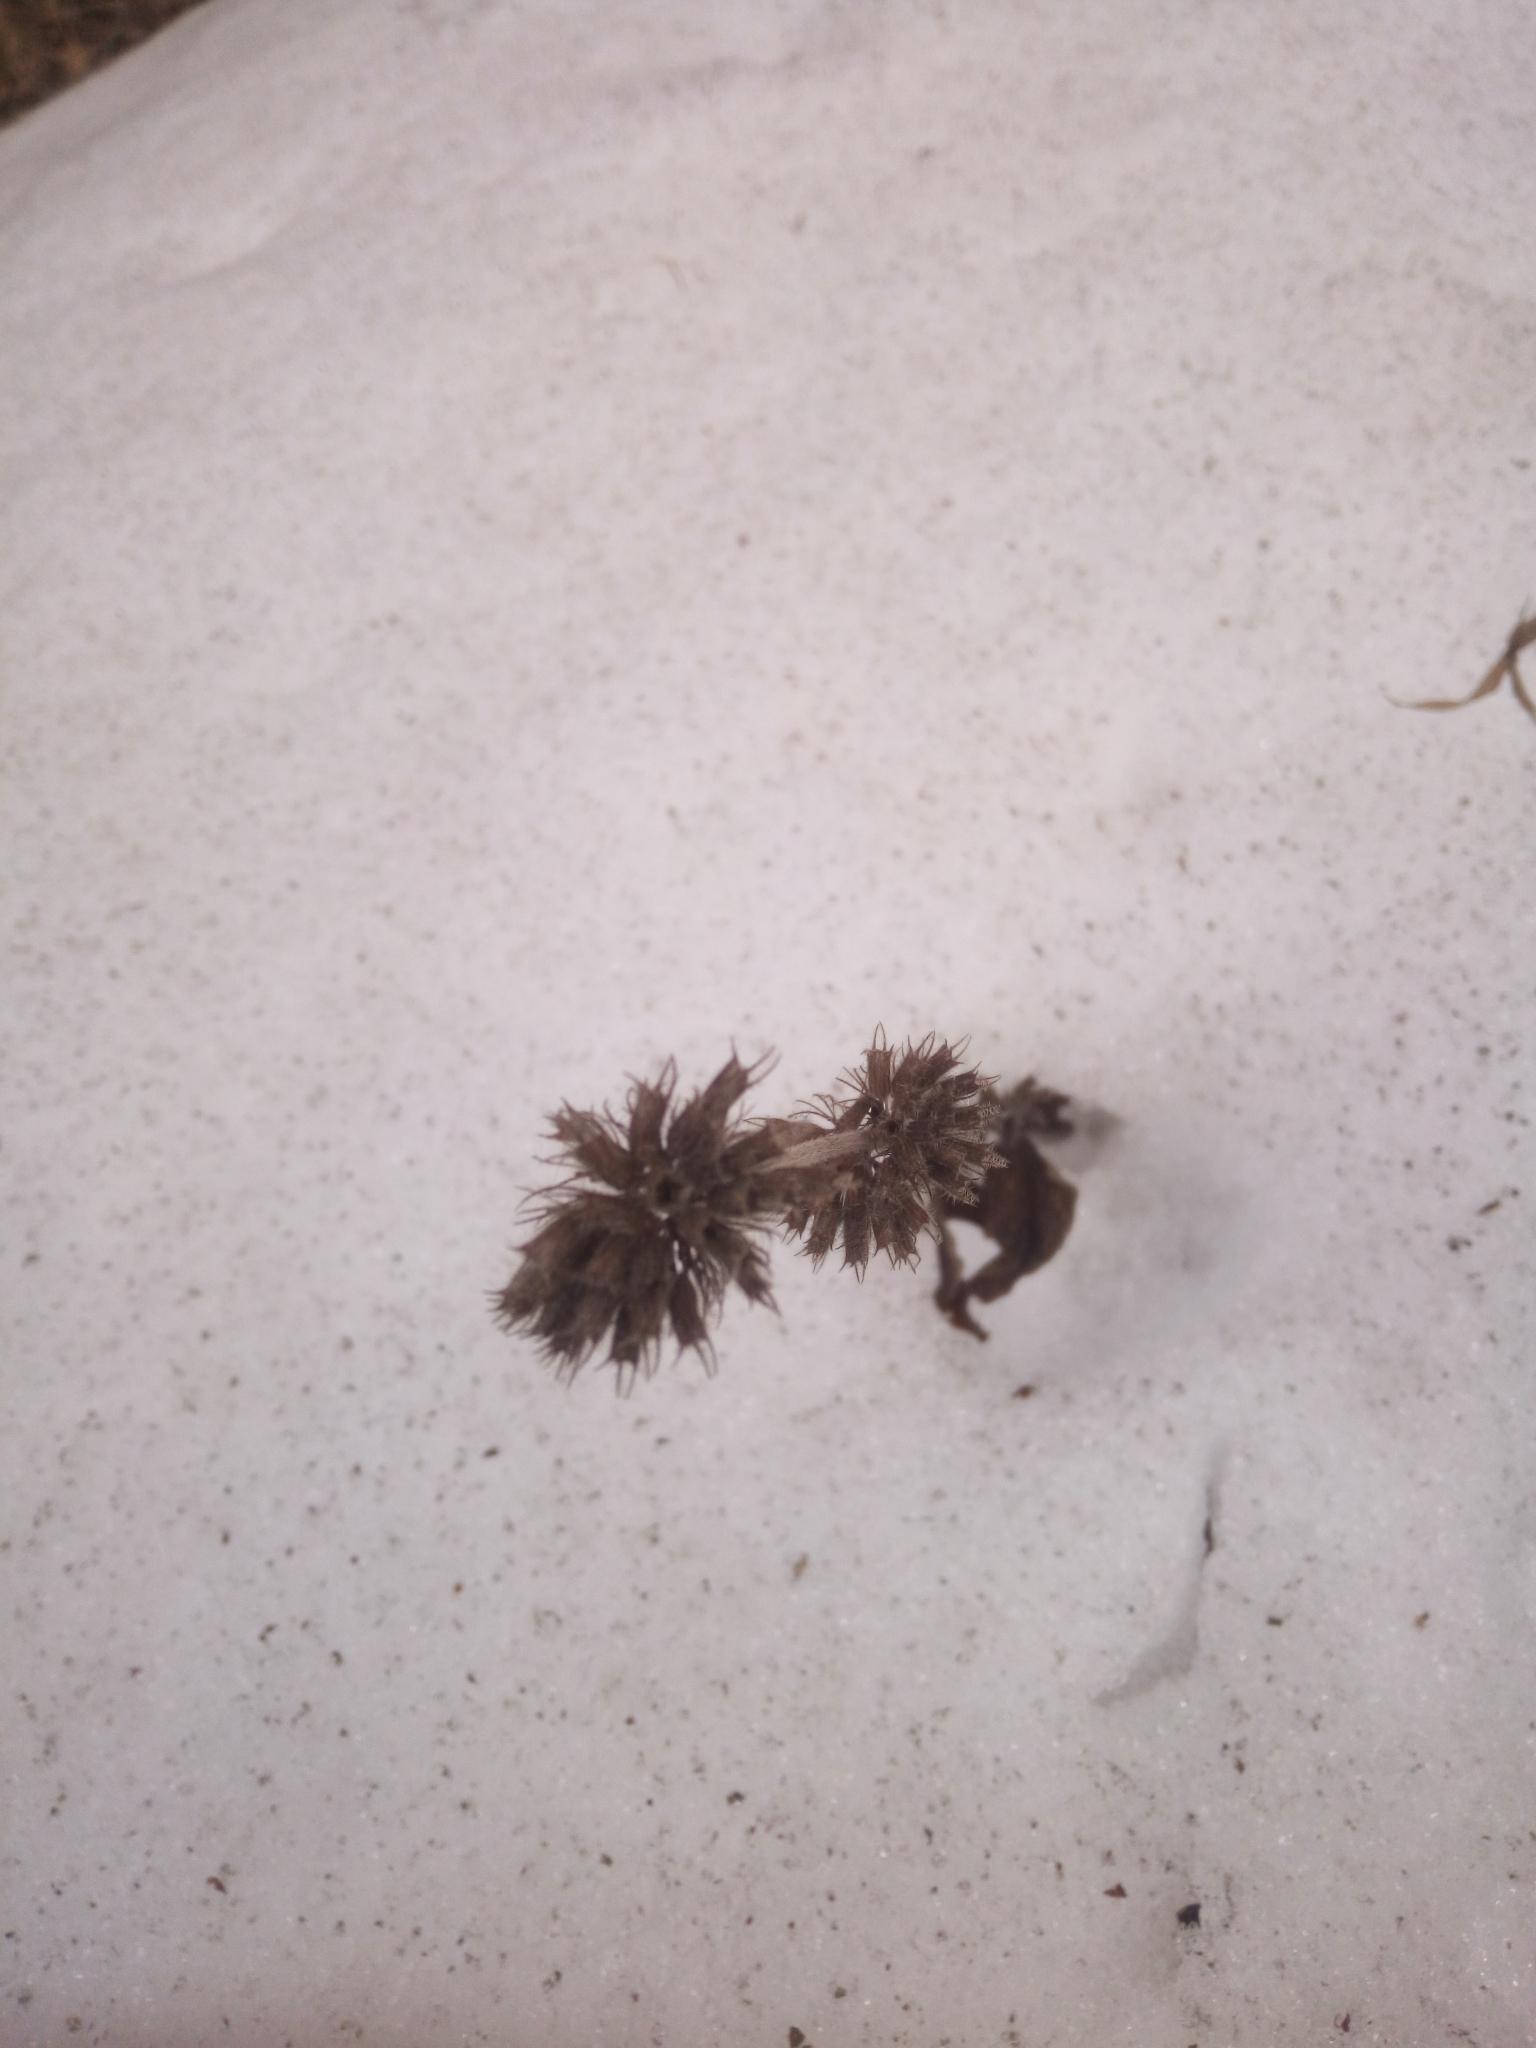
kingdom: Plantae
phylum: Tracheophyta
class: Magnoliopsida
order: Lamiales
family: Lamiaceae
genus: Clinopodium
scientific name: Clinopodium vulgare
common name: Wild basil
